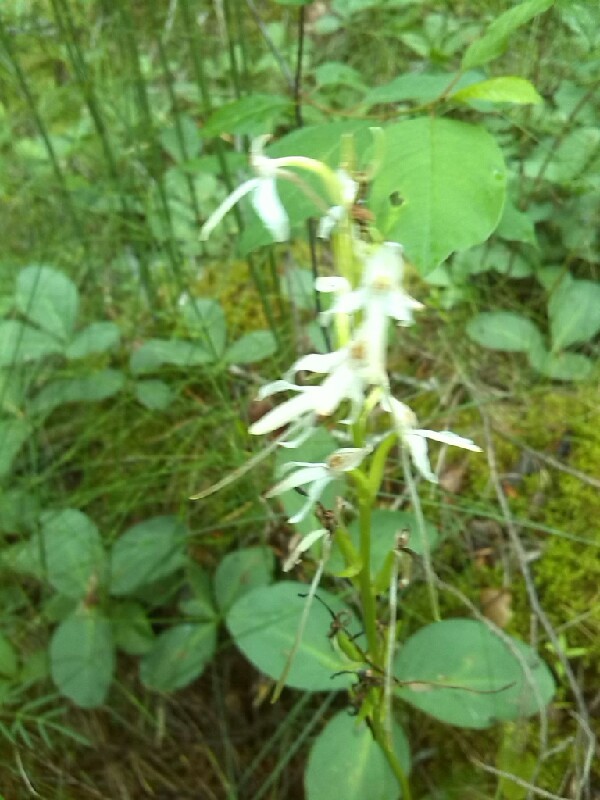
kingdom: Plantae
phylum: Tracheophyta
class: Liliopsida
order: Asparagales
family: Orchidaceae
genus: Platanthera
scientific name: Platanthera bifolia
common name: Lesser butterfly-orchid
